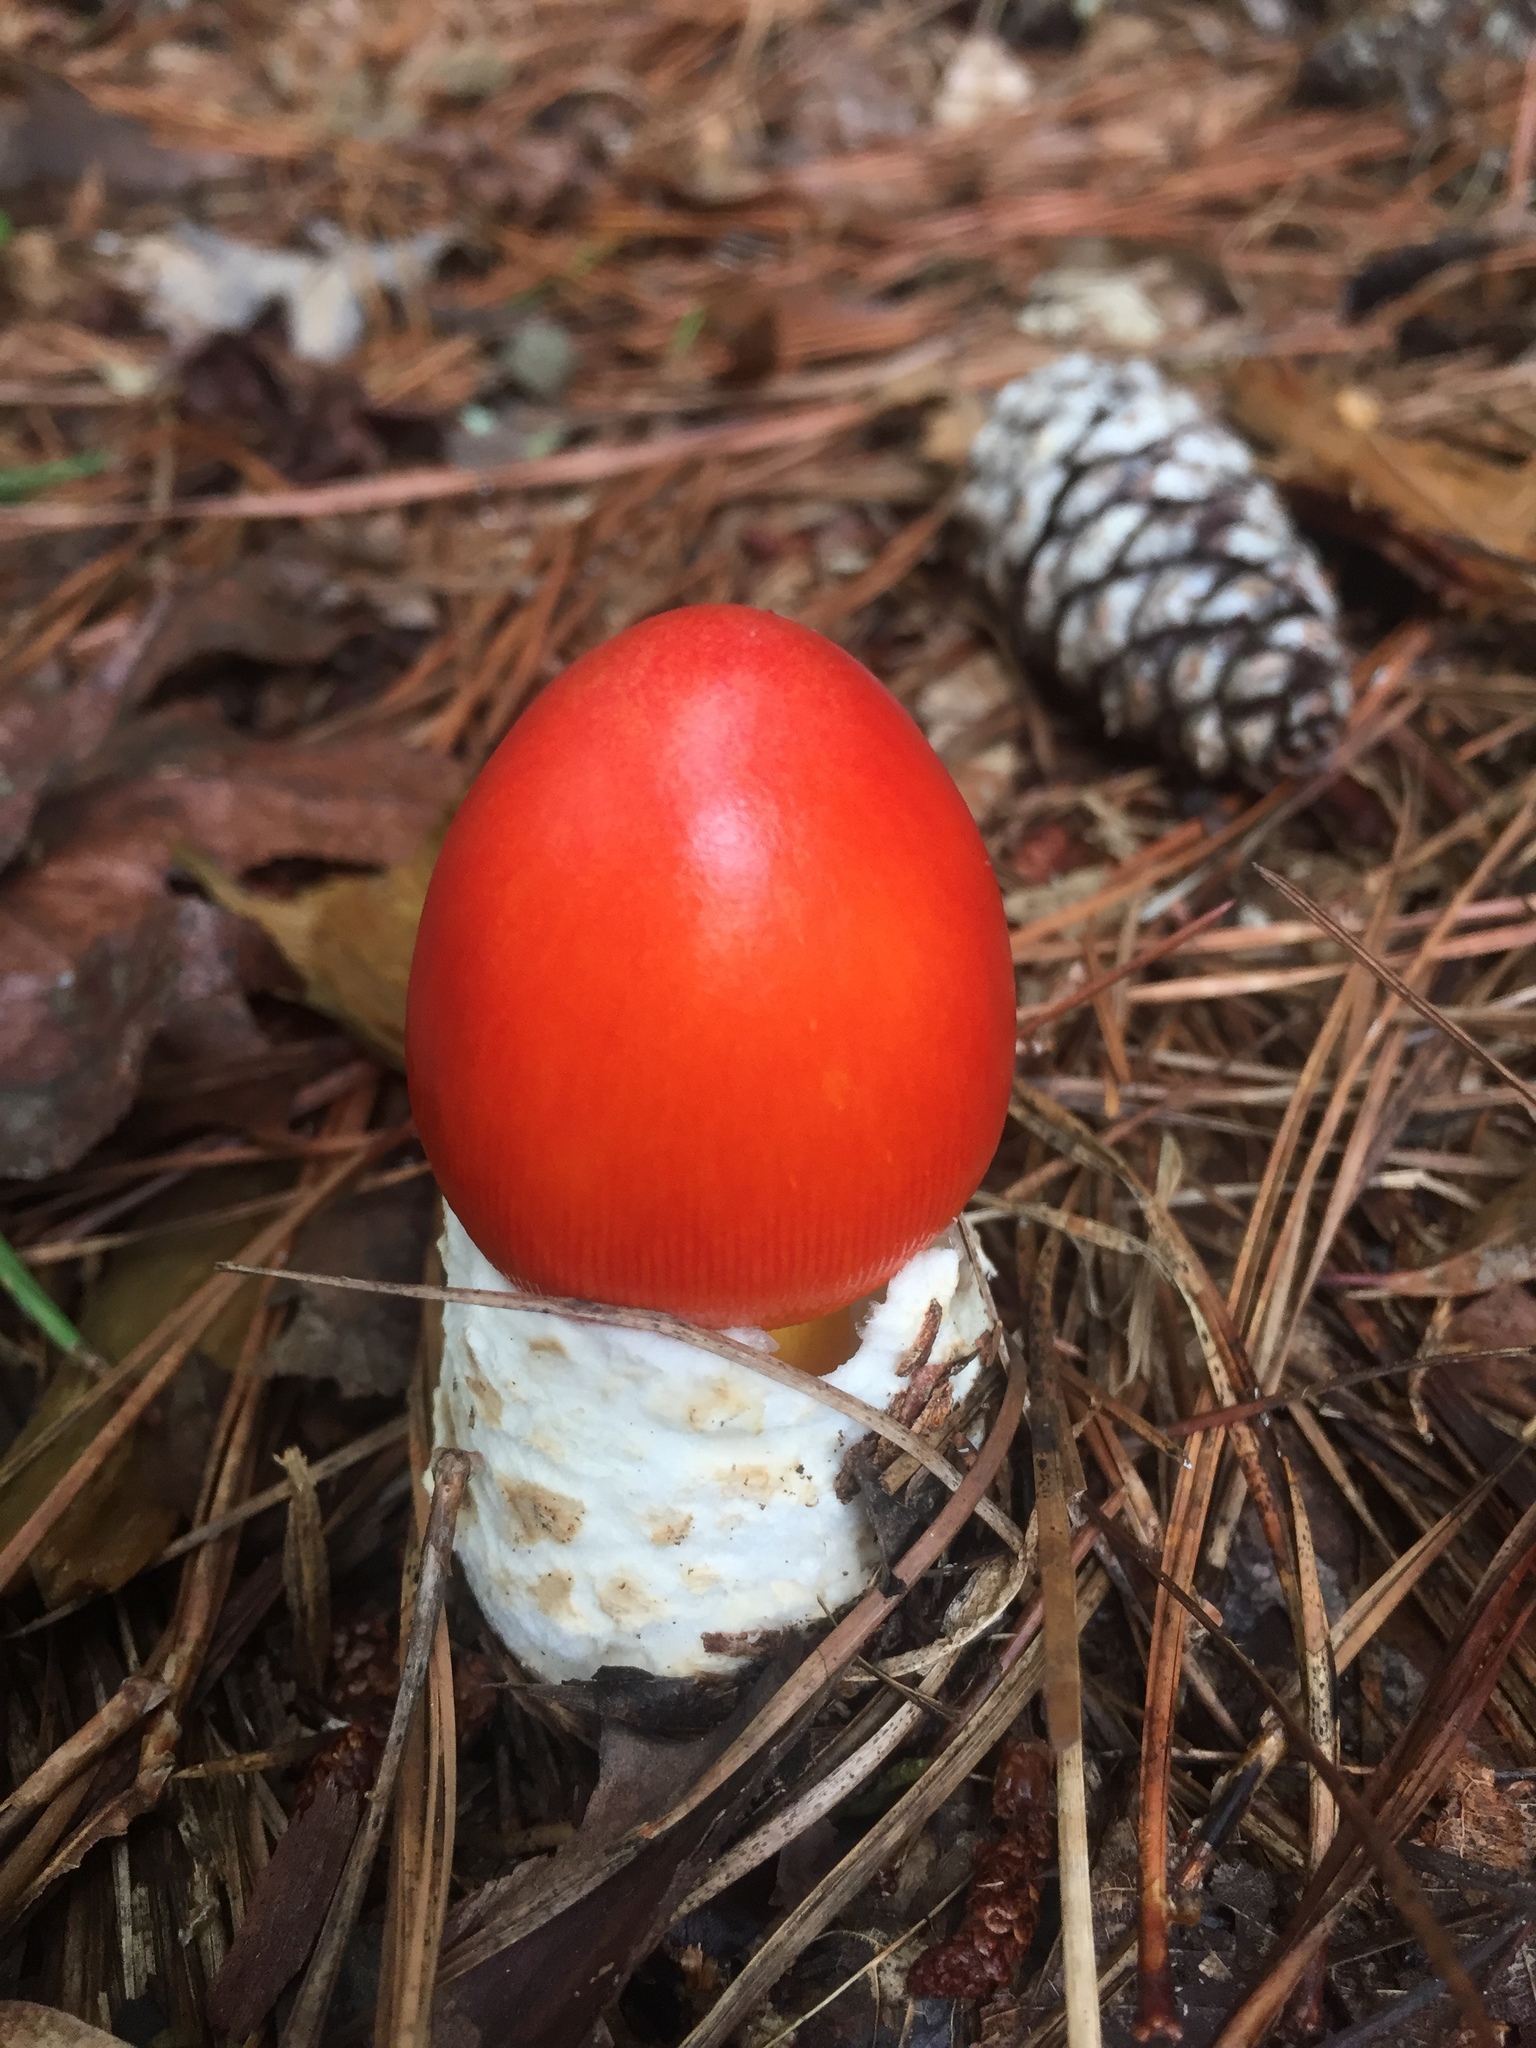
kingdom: Fungi
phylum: Basidiomycota
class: Agaricomycetes
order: Agaricales
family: Amanitaceae
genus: Amanita
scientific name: Amanita jacksonii
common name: Jackson's slender caesar
